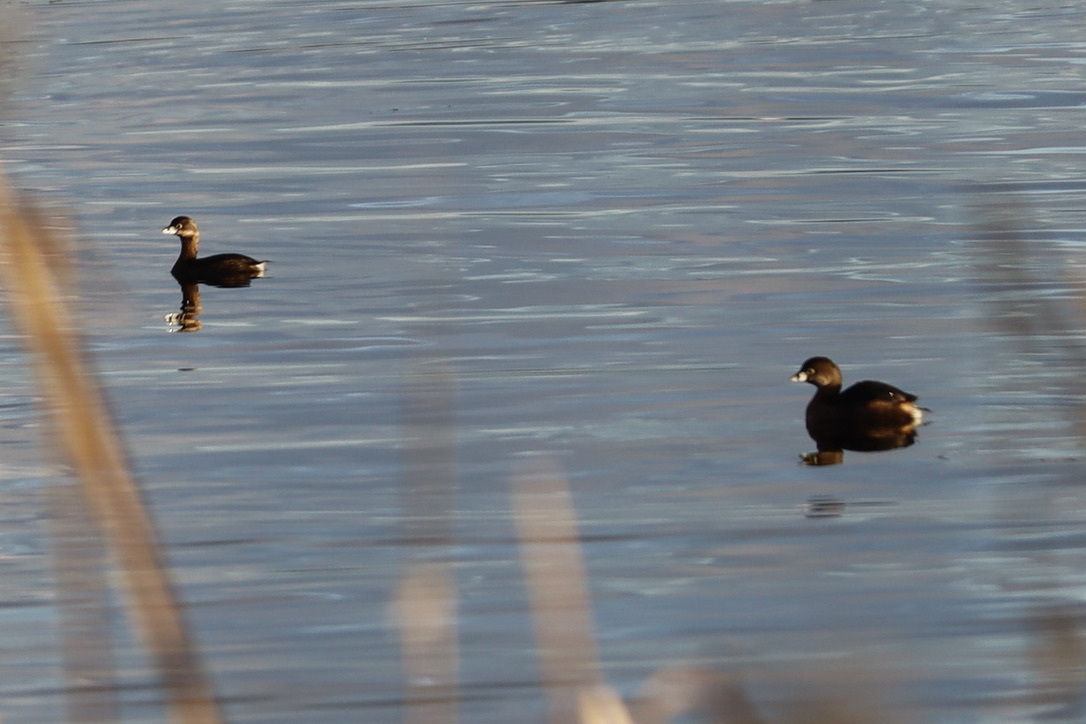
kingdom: Animalia
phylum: Chordata
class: Aves
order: Podicipediformes
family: Podicipedidae
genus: Podilymbus
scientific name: Podilymbus podiceps
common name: Pied-billed grebe
